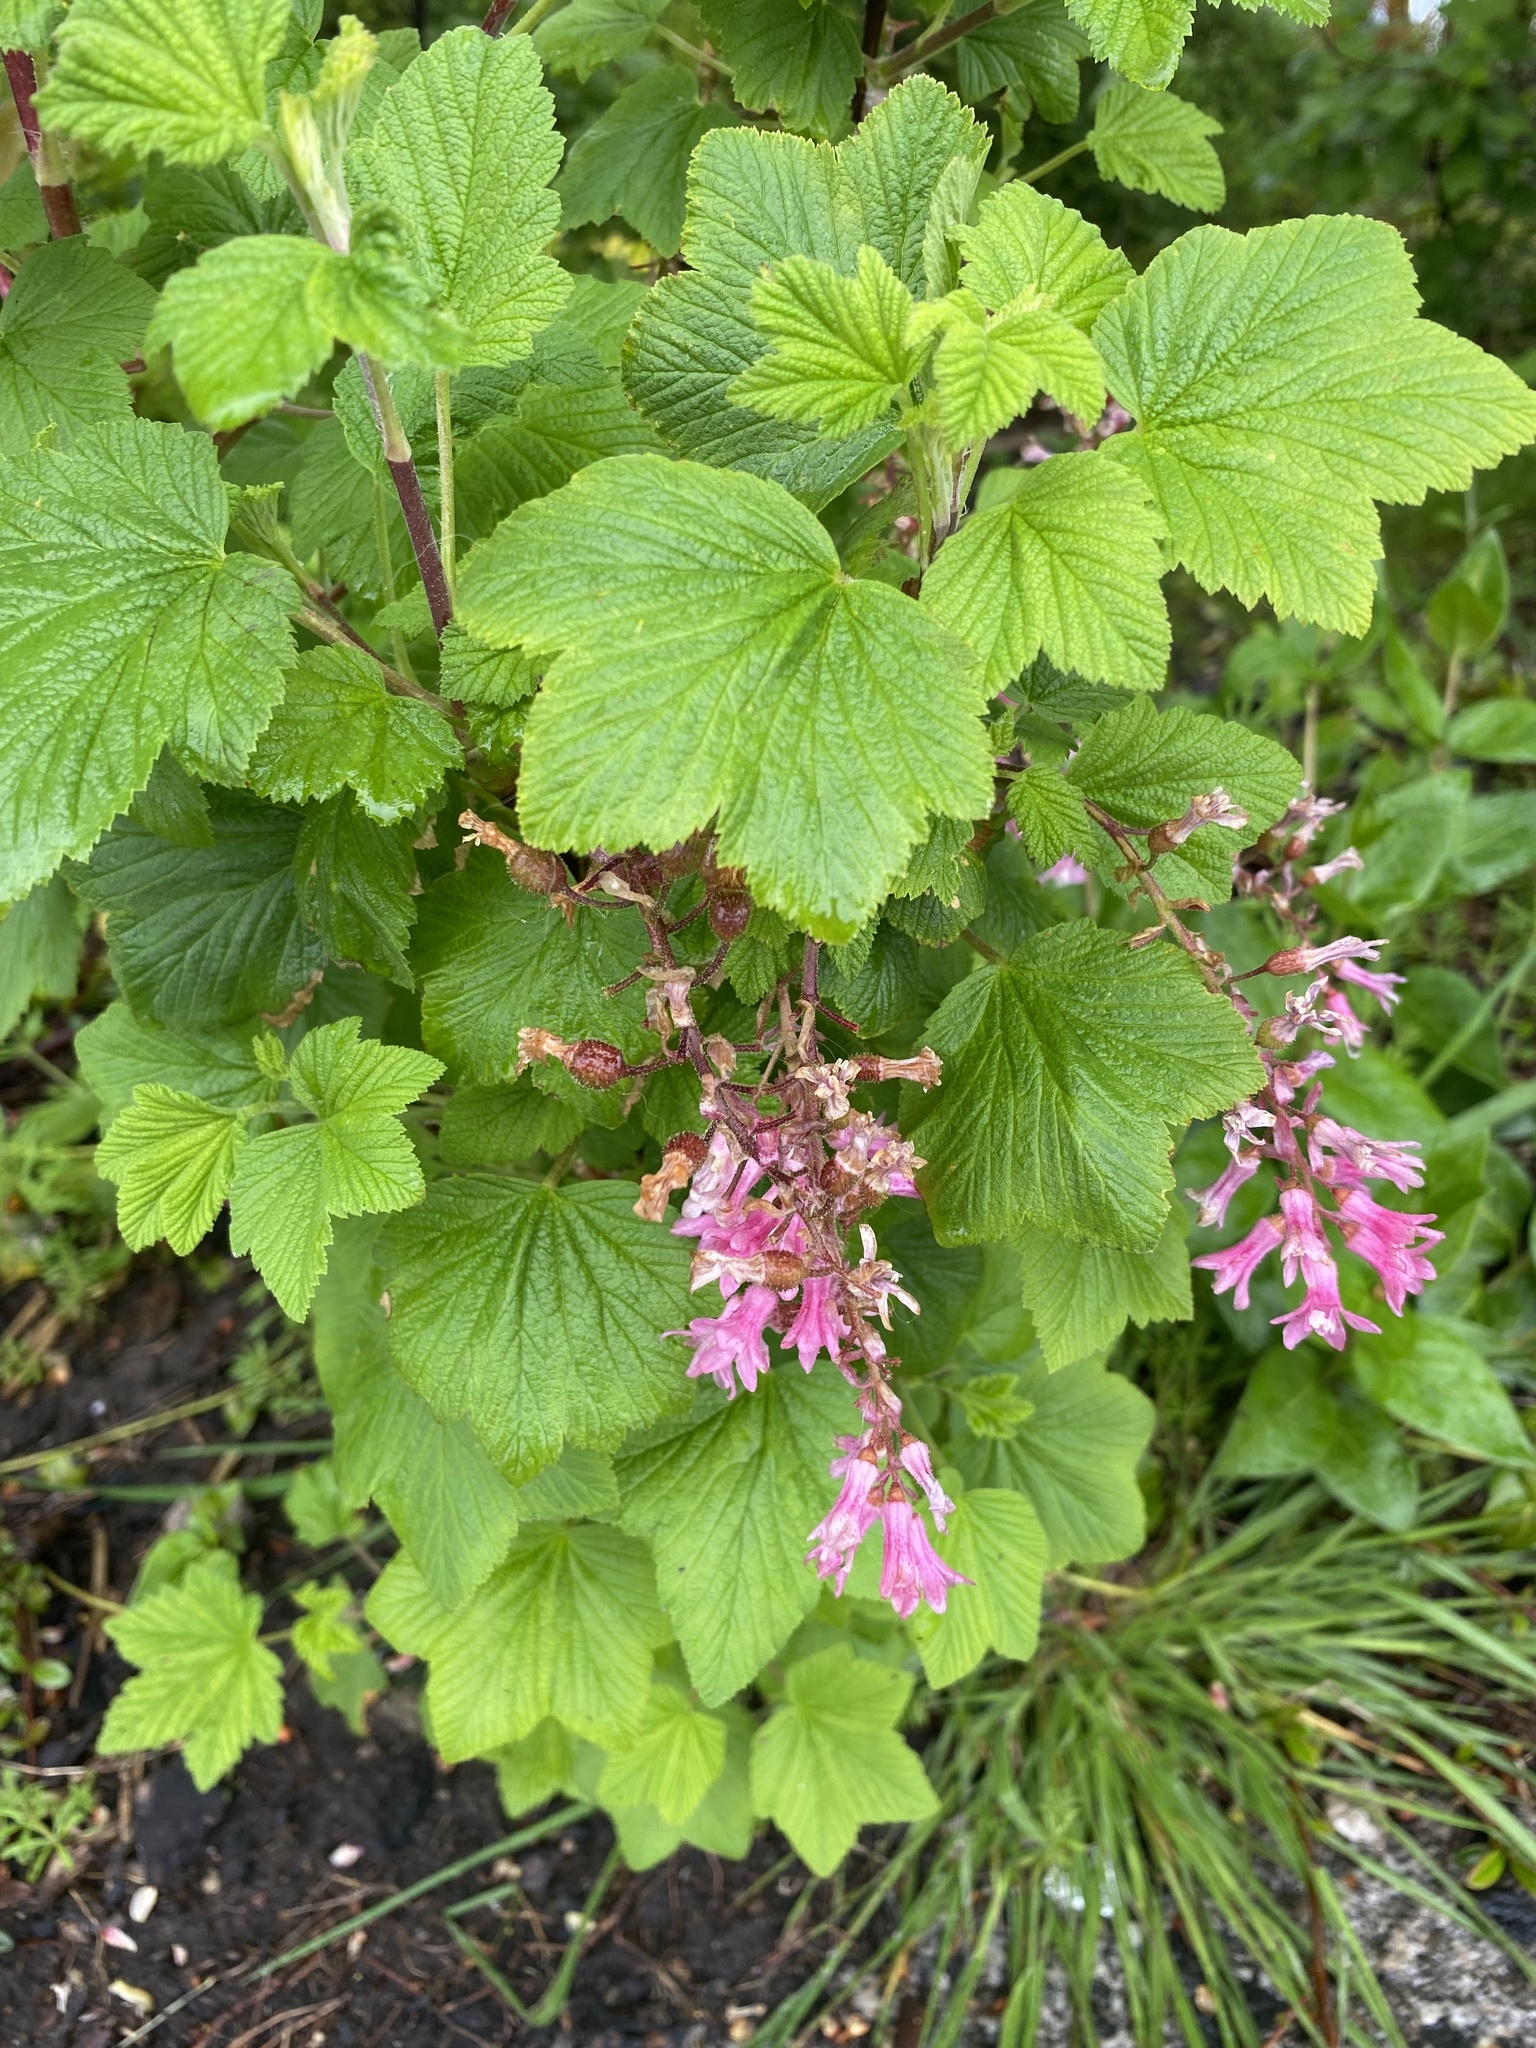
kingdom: Plantae
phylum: Tracheophyta
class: Magnoliopsida
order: Saxifragales
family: Grossulariaceae
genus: Ribes
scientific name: Ribes sanguineum
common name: Flowering currant
